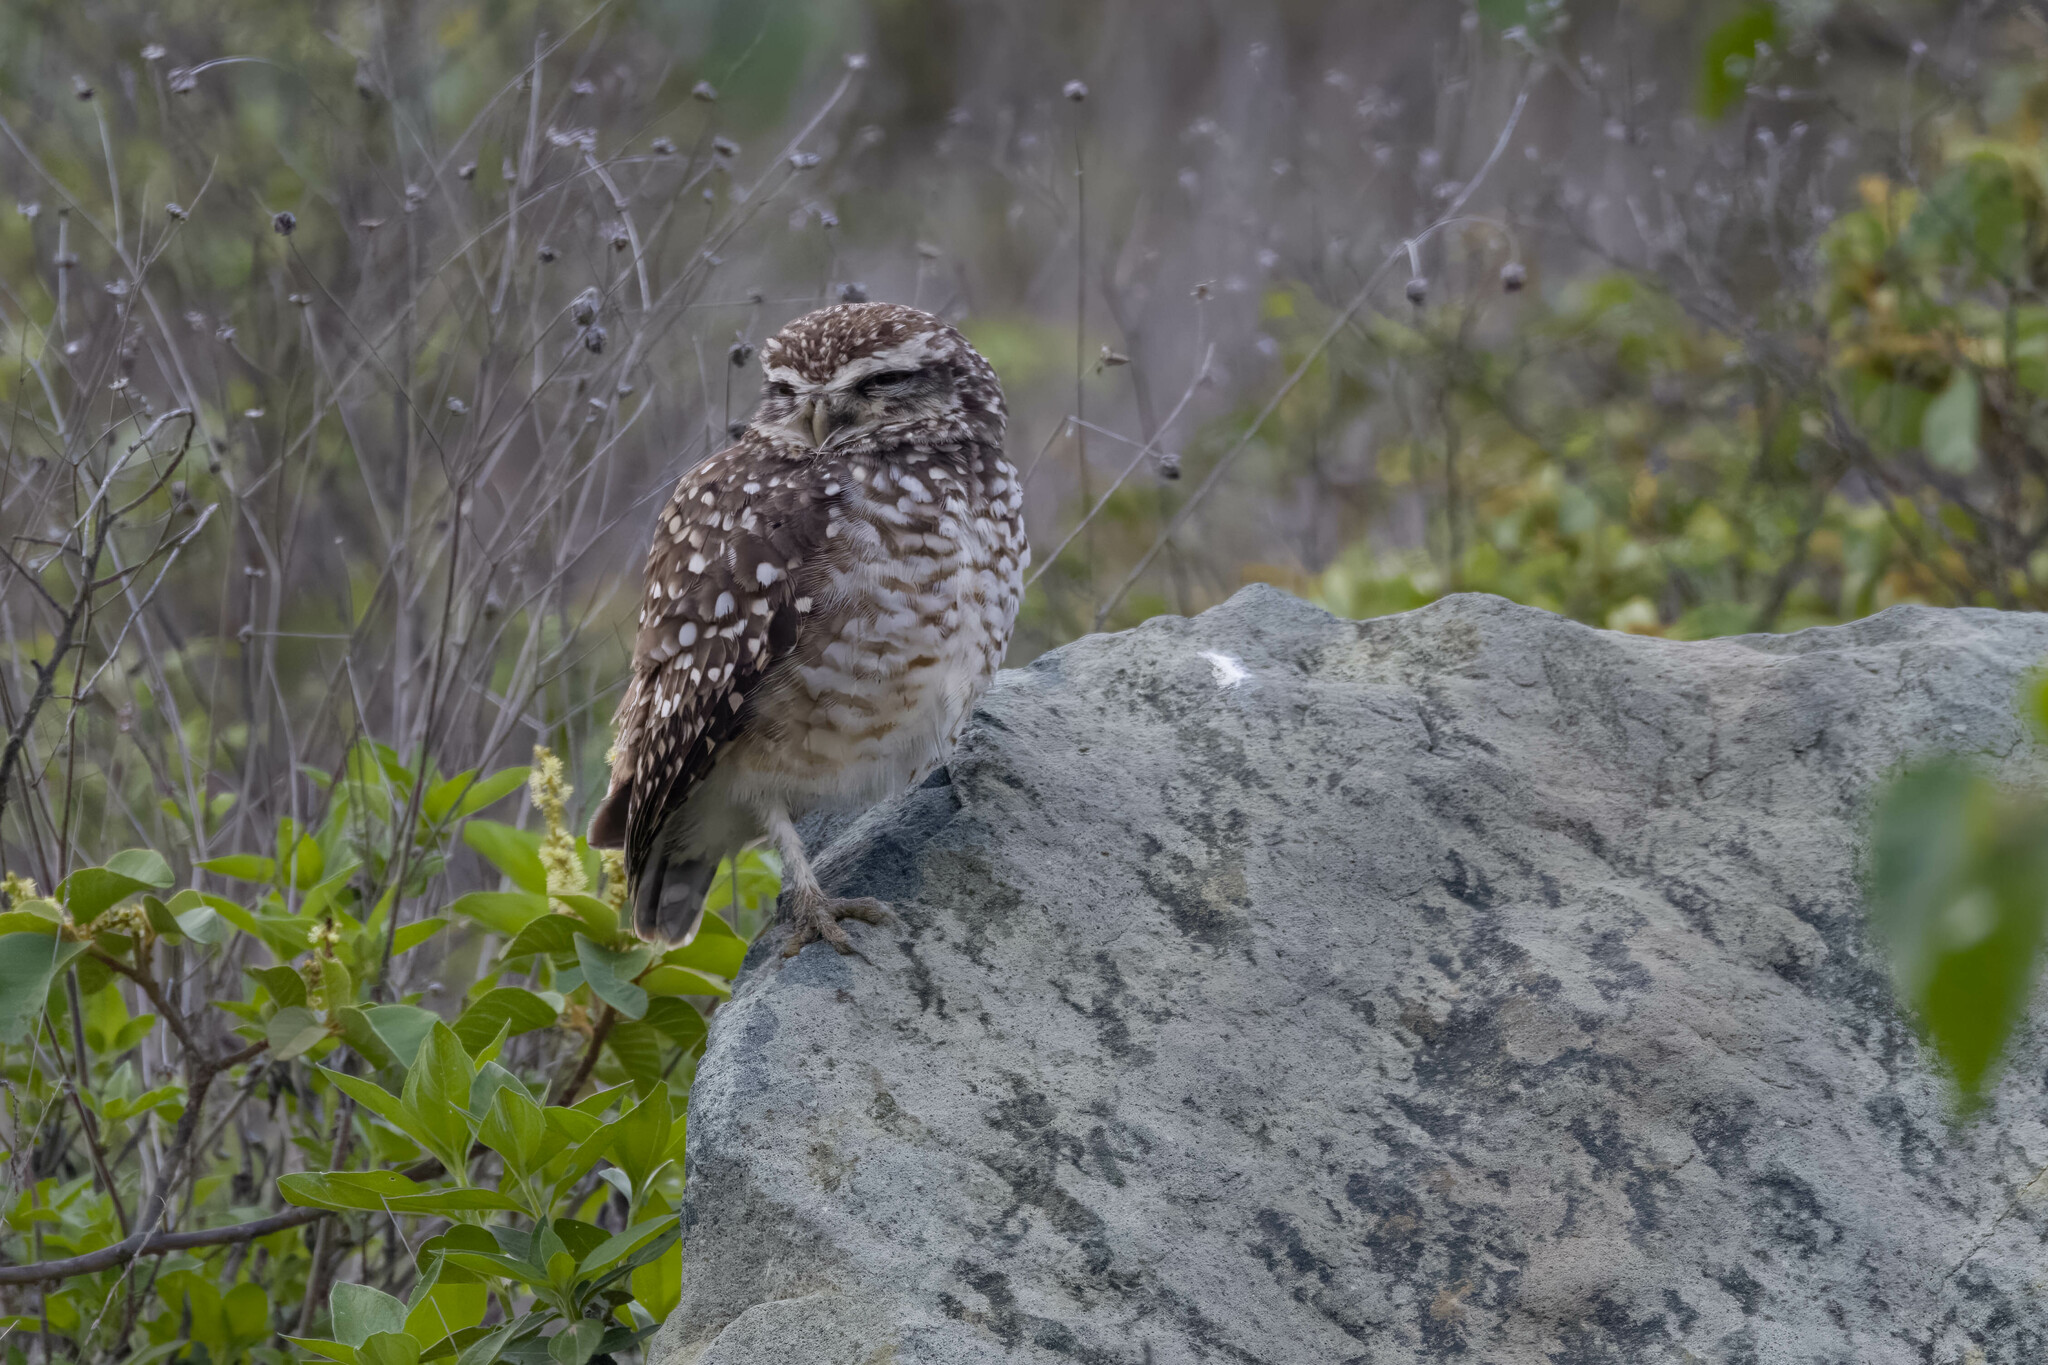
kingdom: Animalia
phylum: Chordata
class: Aves
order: Strigiformes
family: Strigidae
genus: Athene
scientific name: Athene cunicularia
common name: Burrowing owl
